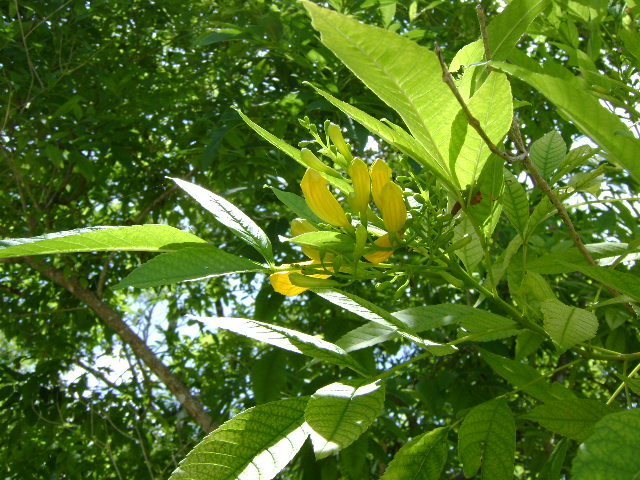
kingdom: Plantae
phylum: Tracheophyta
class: Magnoliopsida
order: Lamiales
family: Bignoniaceae
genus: Tecoma
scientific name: Tecoma stans
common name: Yellow trumpetbush
